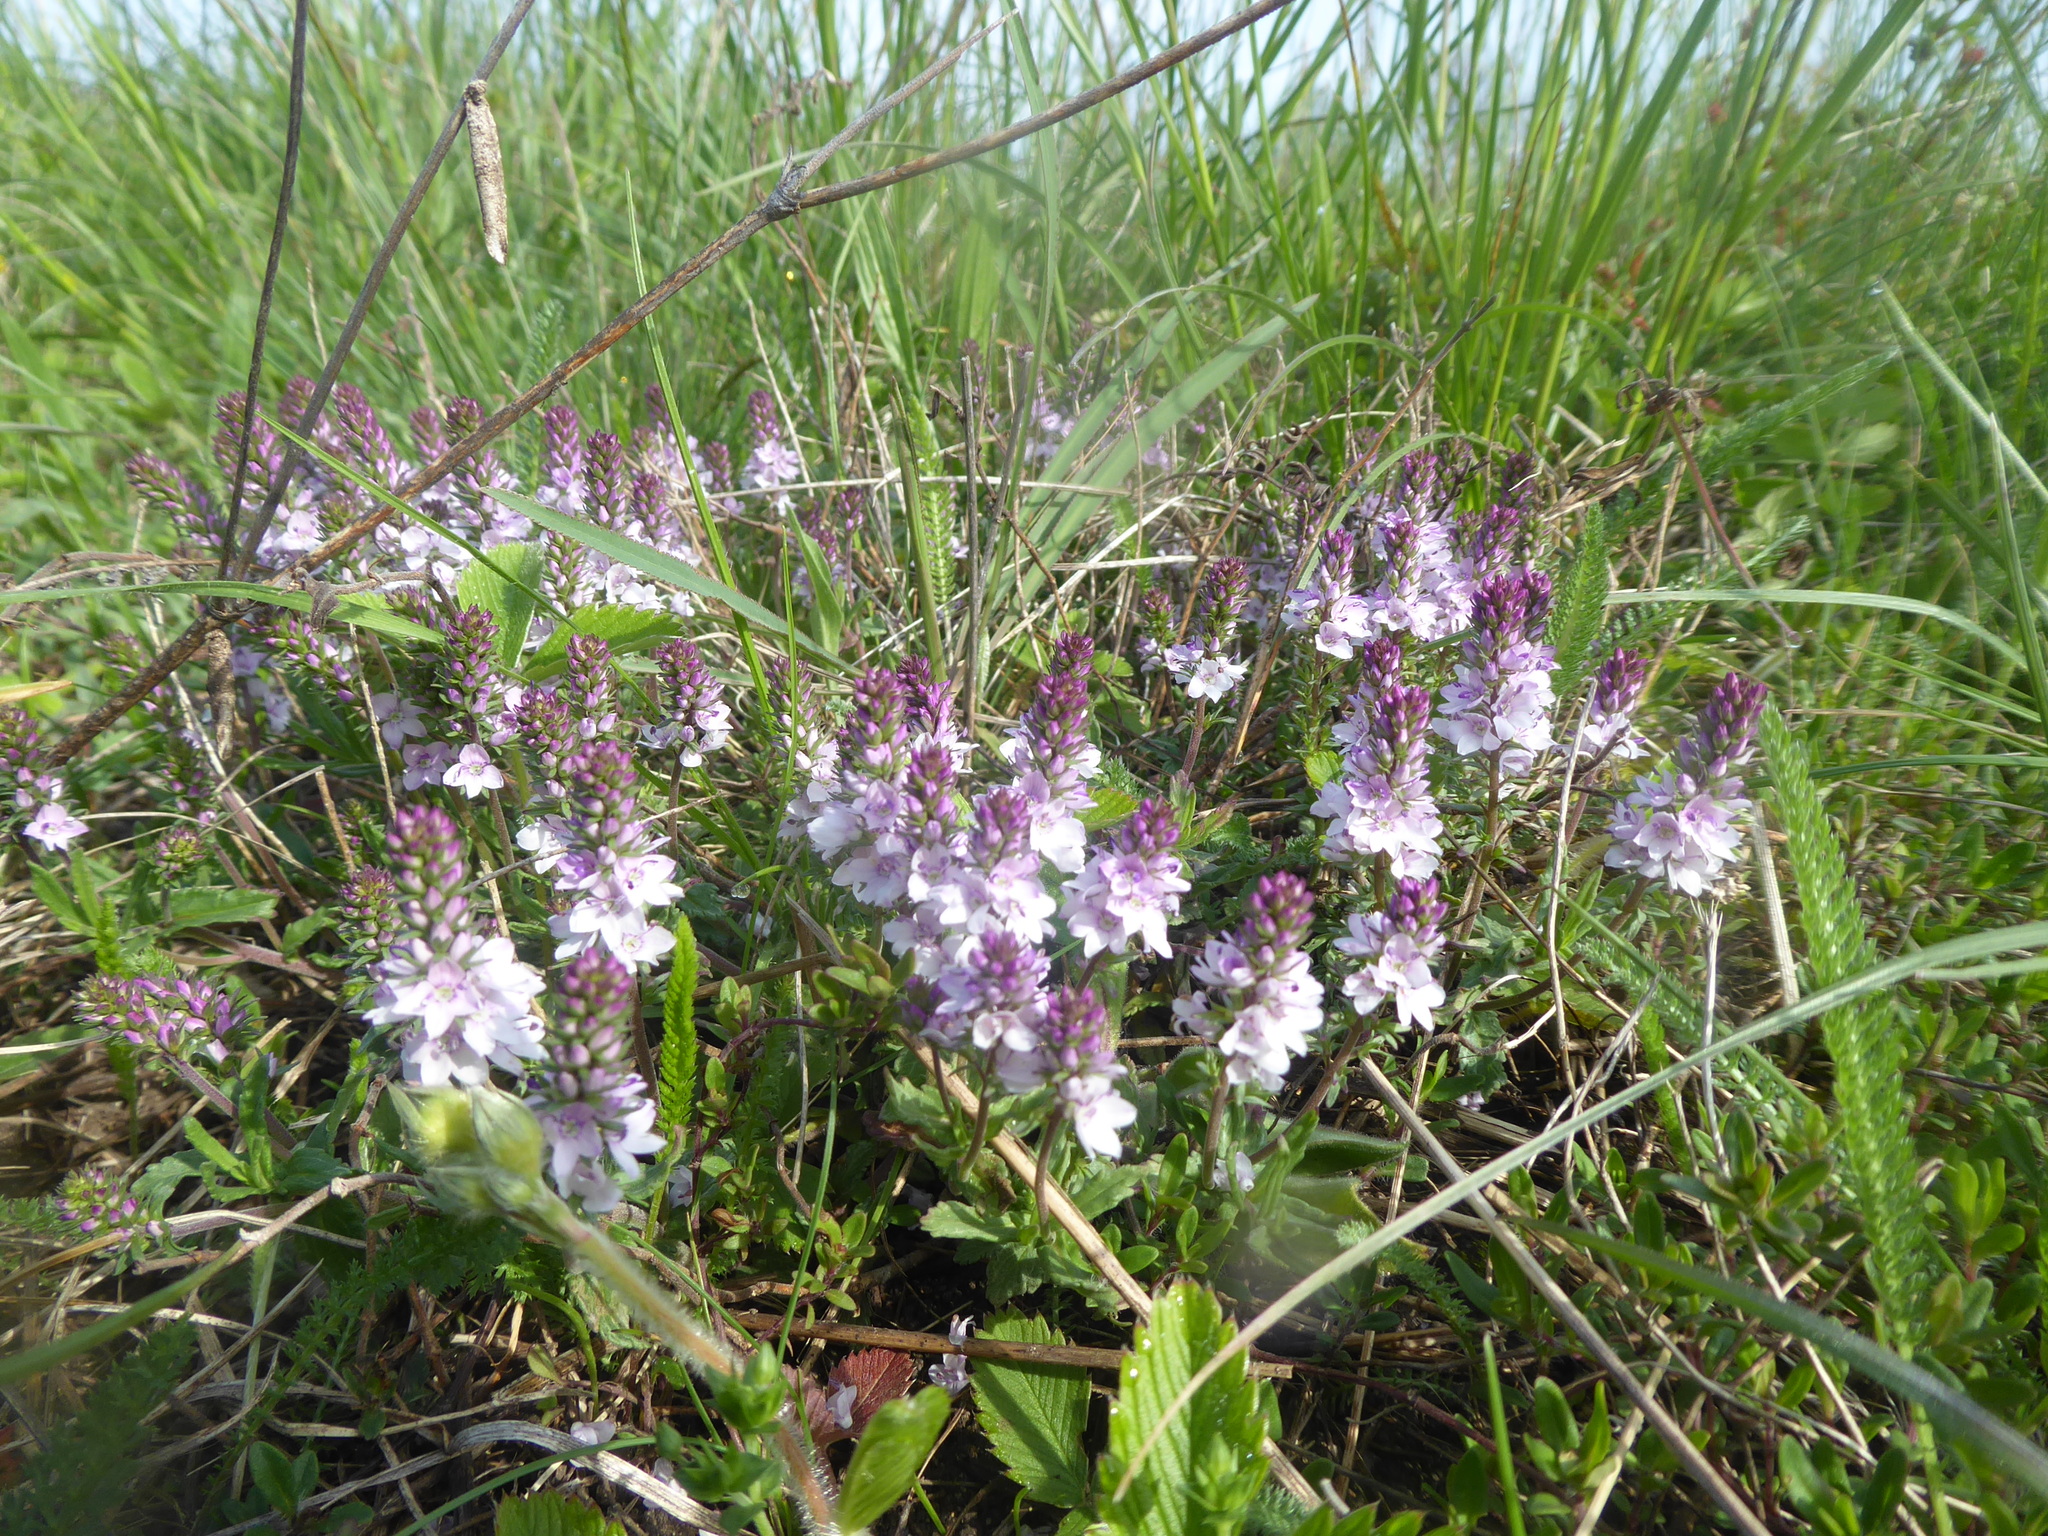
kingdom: Plantae
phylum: Tracheophyta
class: Magnoliopsida
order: Lamiales
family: Plantaginaceae
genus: Veronica
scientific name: Veronica prostrata
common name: Prostrate speedwell
